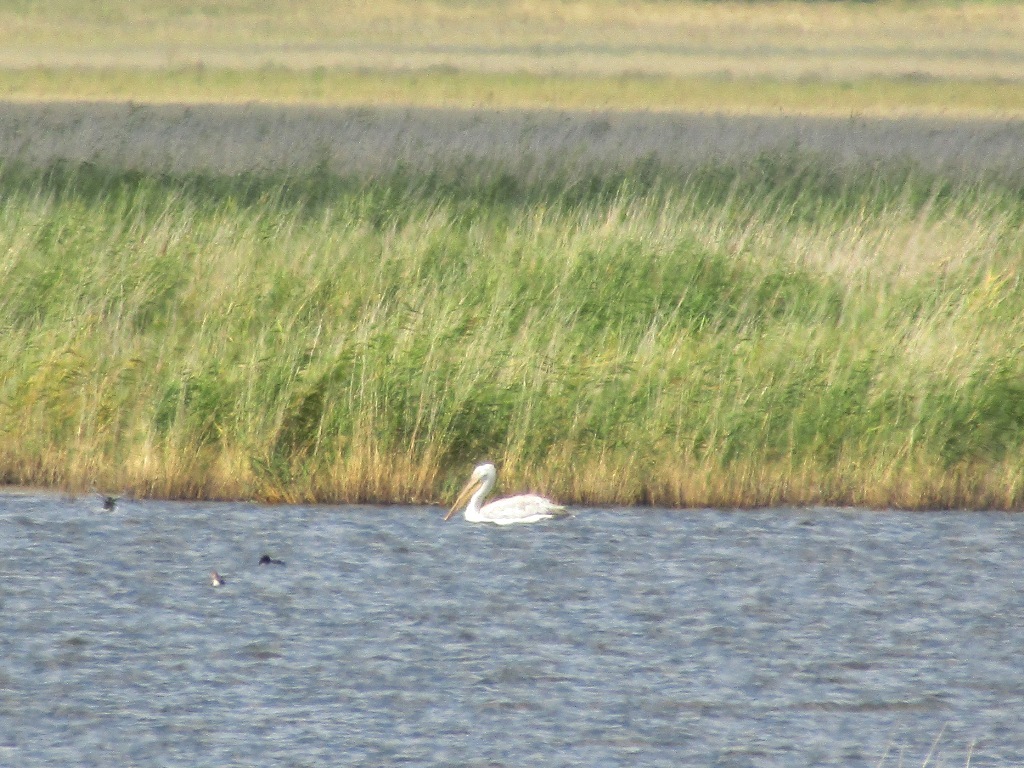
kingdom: Animalia
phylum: Chordata
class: Aves
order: Pelecaniformes
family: Pelecanidae
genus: Pelecanus
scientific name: Pelecanus crispus
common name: Dalmatian pelican
